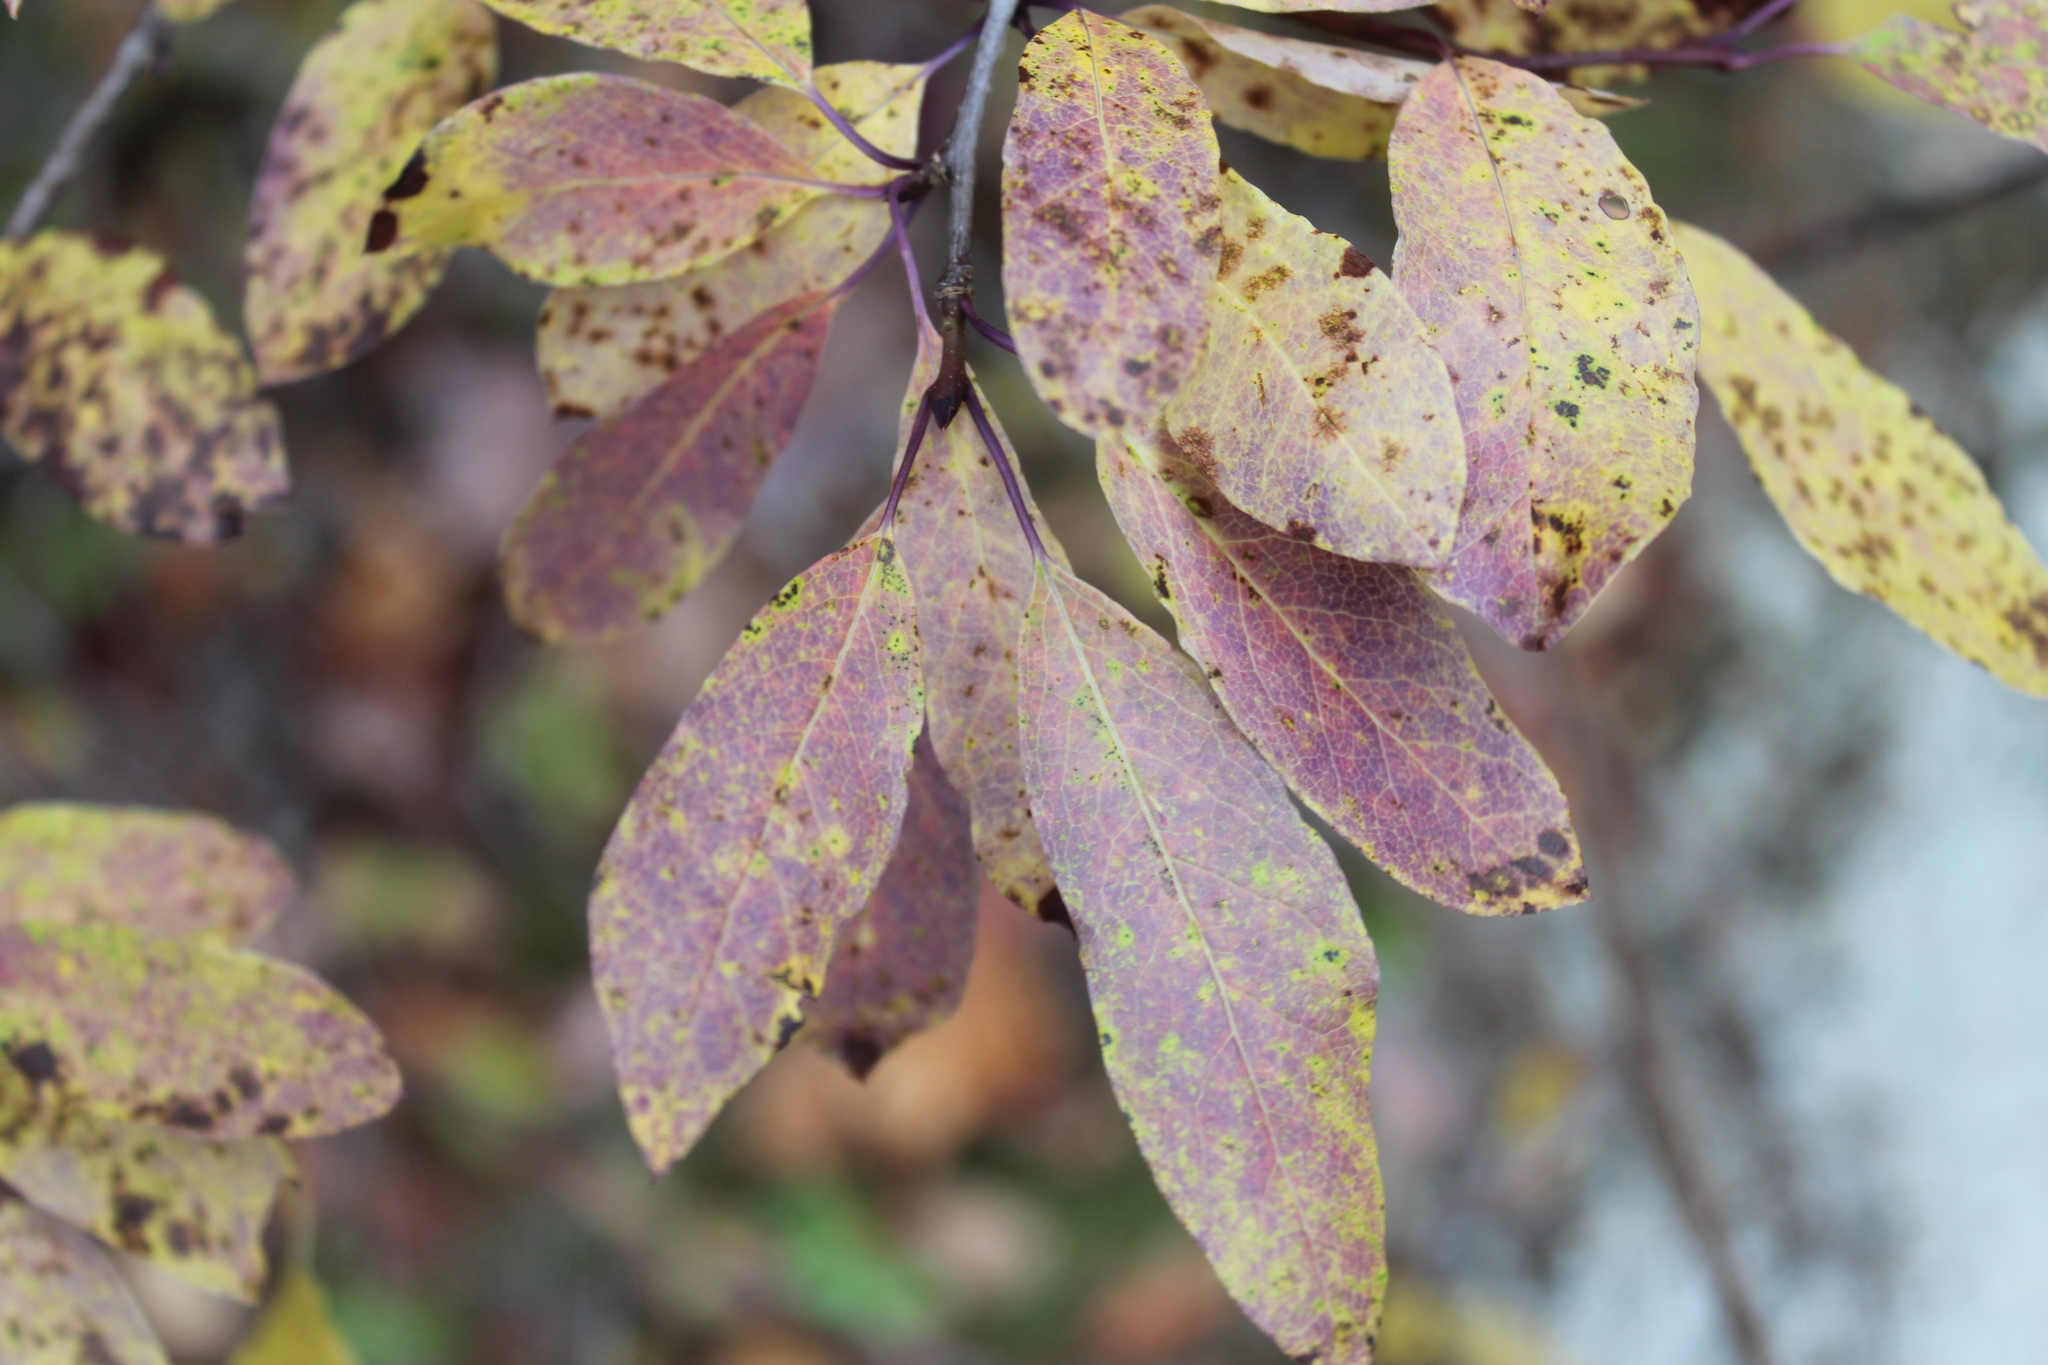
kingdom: Plantae
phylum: Tracheophyta
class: Magnoliopsida
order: Aquifoliales
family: Aquifoliaceae
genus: Ilex
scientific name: Ilex mucronata
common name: Catberry
